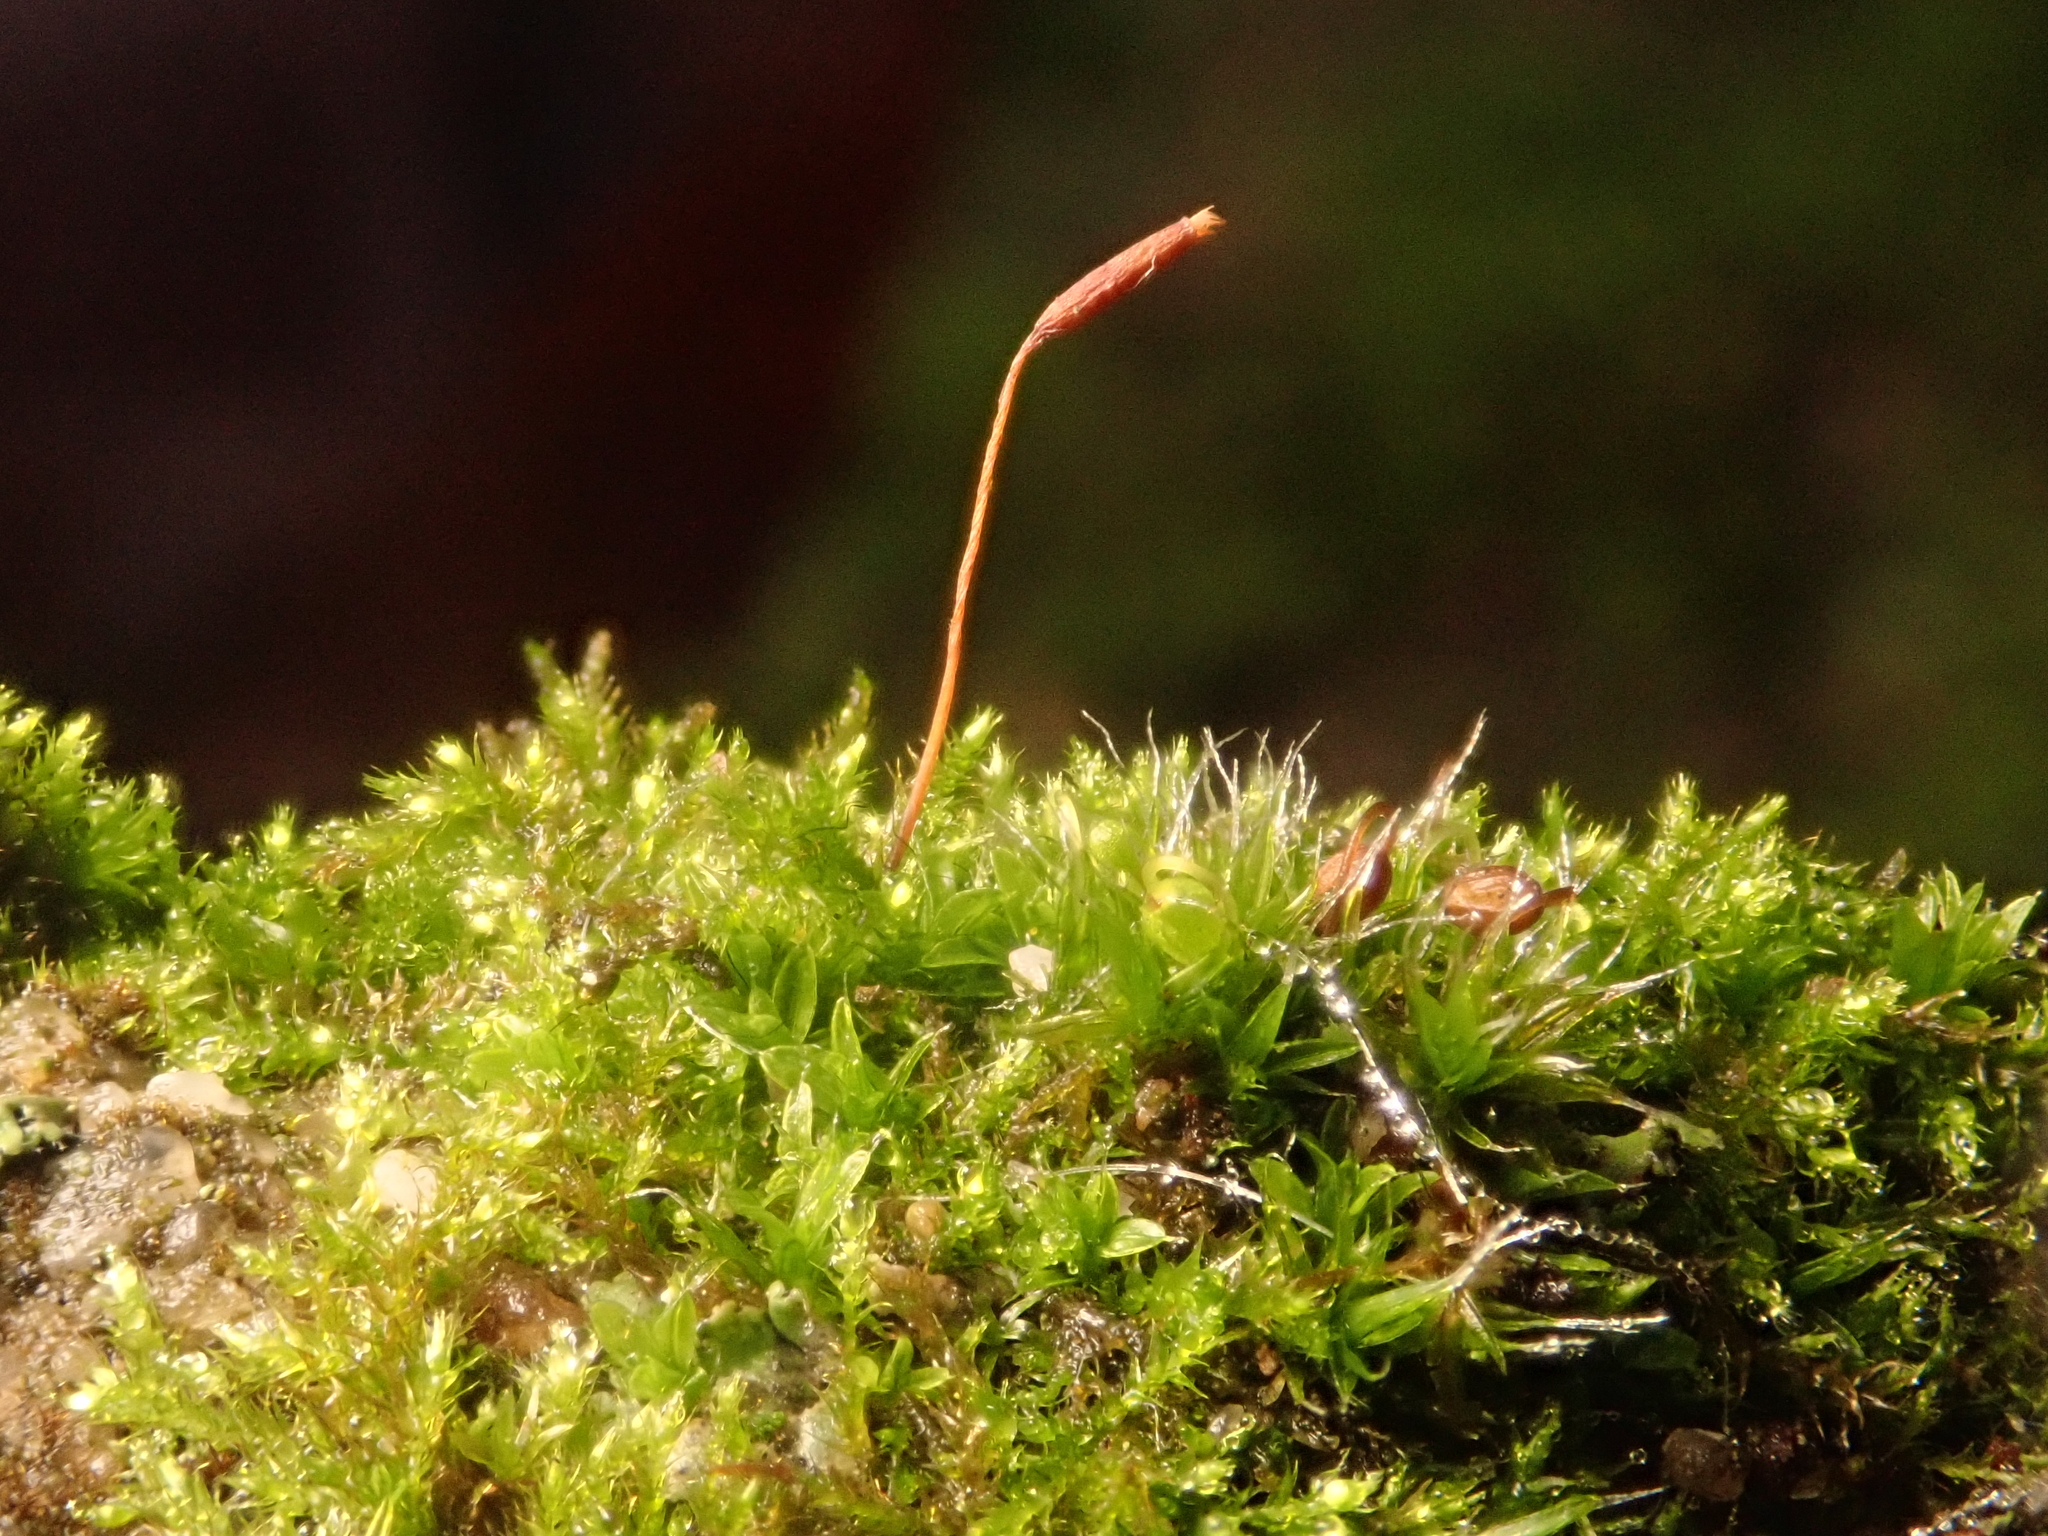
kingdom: Plantae
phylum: Bryophyta
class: Bryopsida
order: Pottiales
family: Pottiaceae
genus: Tortula
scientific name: Tortula muralis
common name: Wall screw-moss
